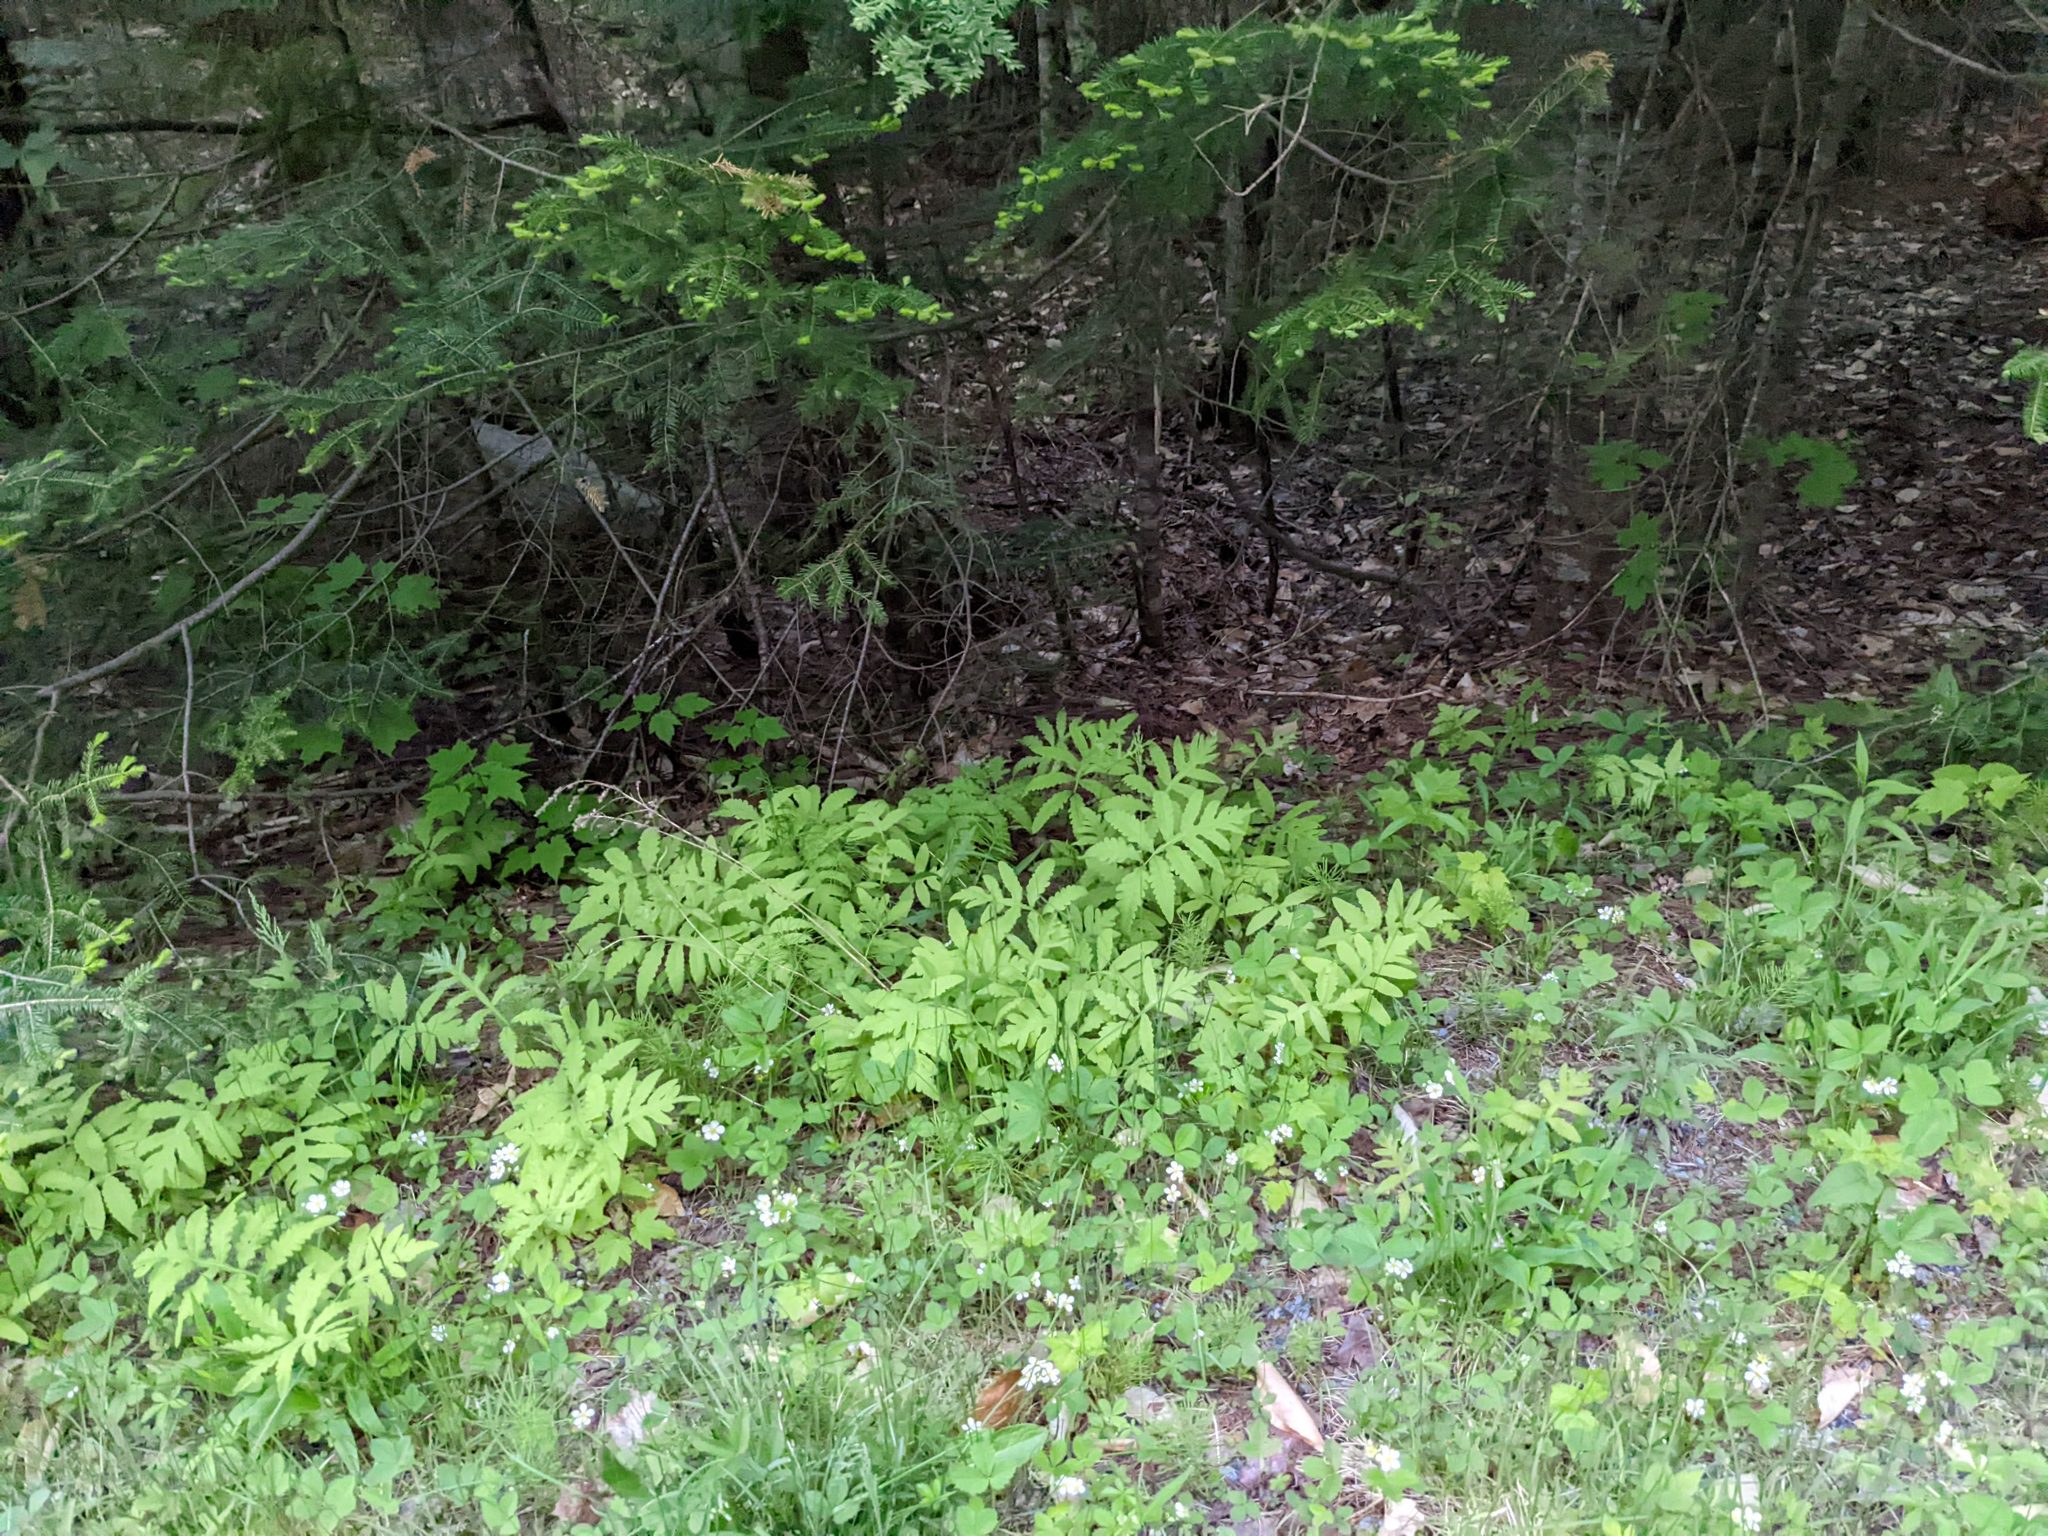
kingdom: Plantae
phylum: Tracheophyta
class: Polypodiopsida
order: Polypodiales
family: Onocleaceae
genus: Onoclea
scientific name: Onoclea sensibilis
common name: Sensitive fern
